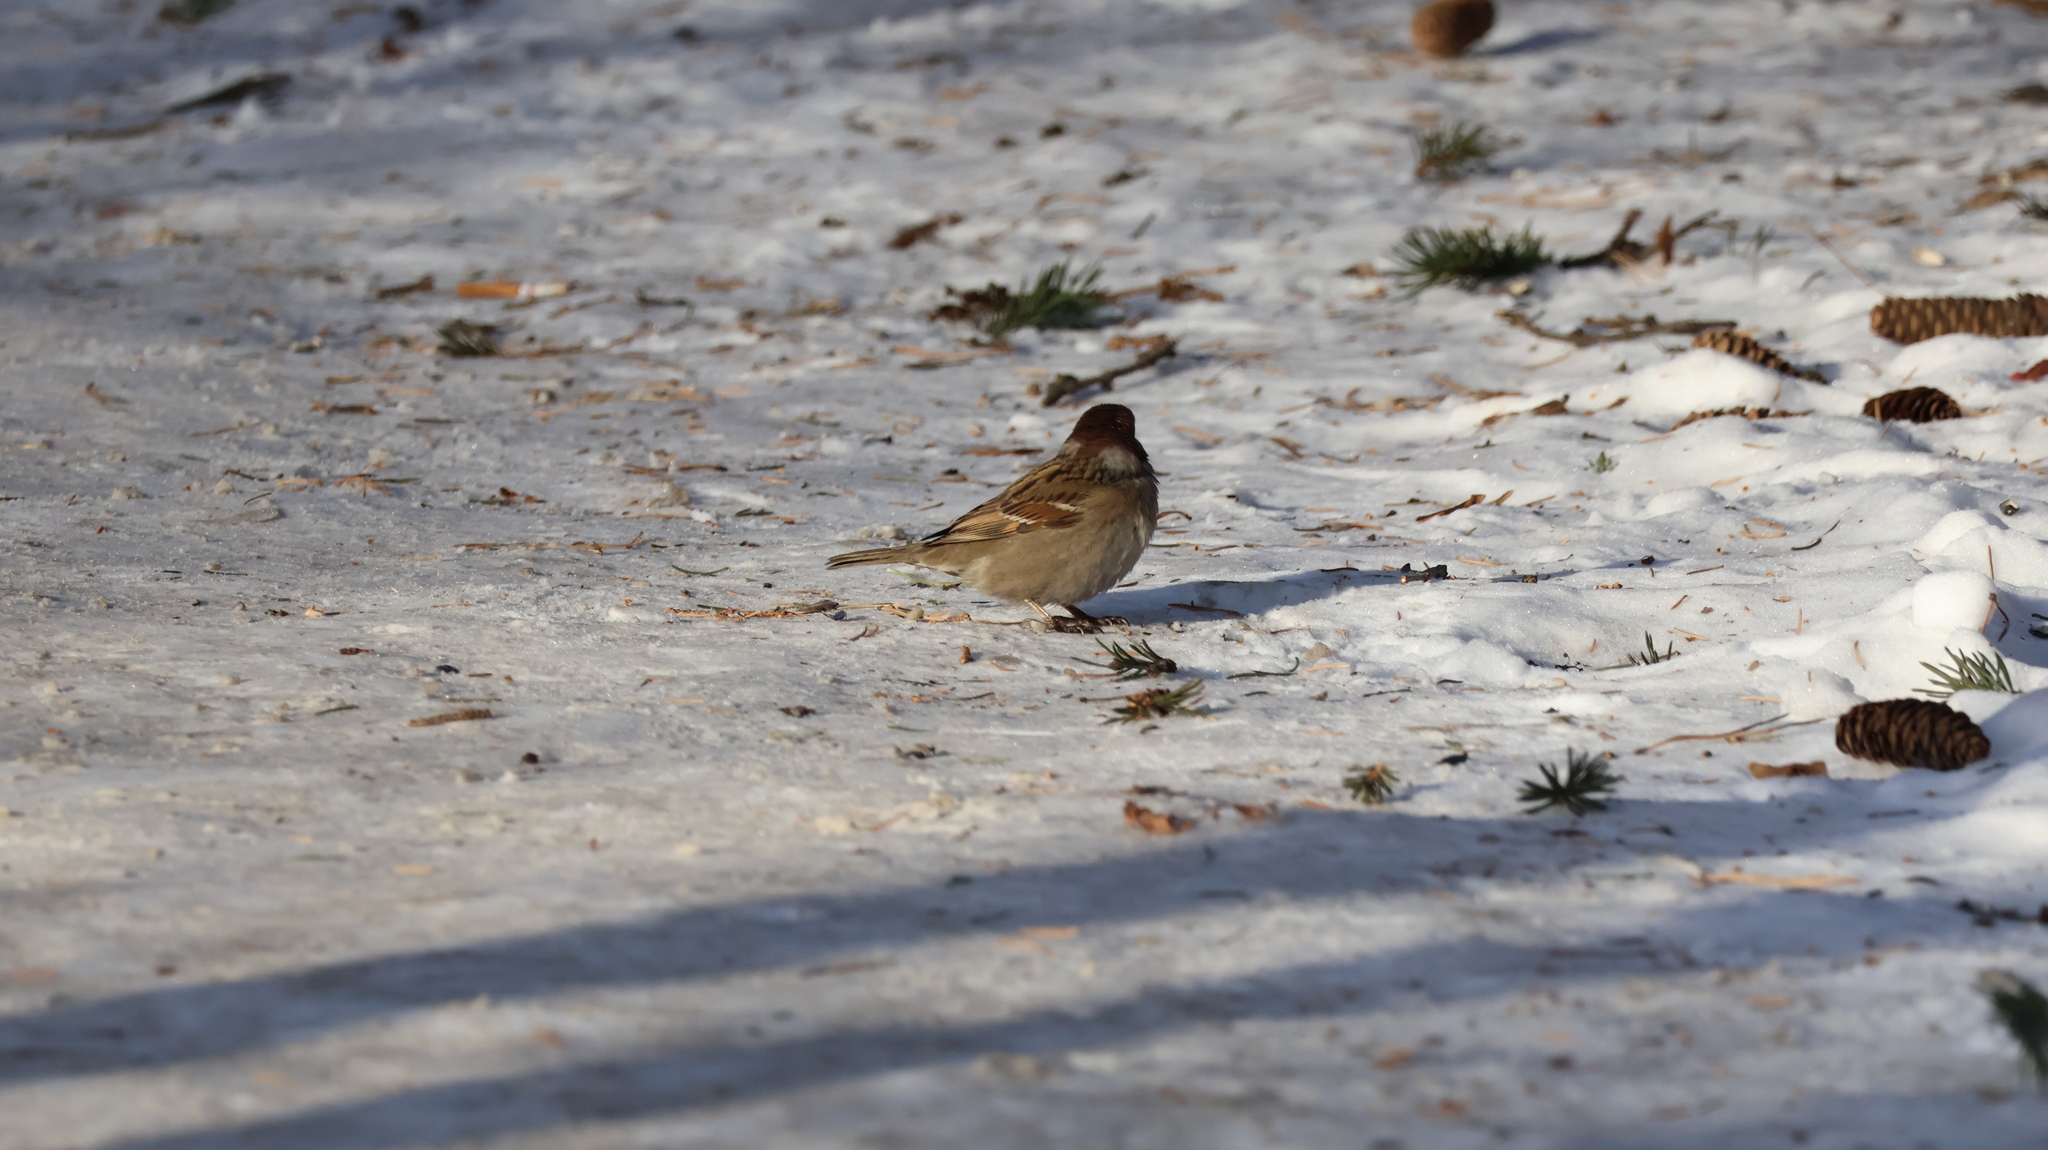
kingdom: Animalia
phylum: Chordata
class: Aves
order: Passeriformes
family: Passeridae
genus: Passer
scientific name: Passer montanus
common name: Eurasian tree sparrow
